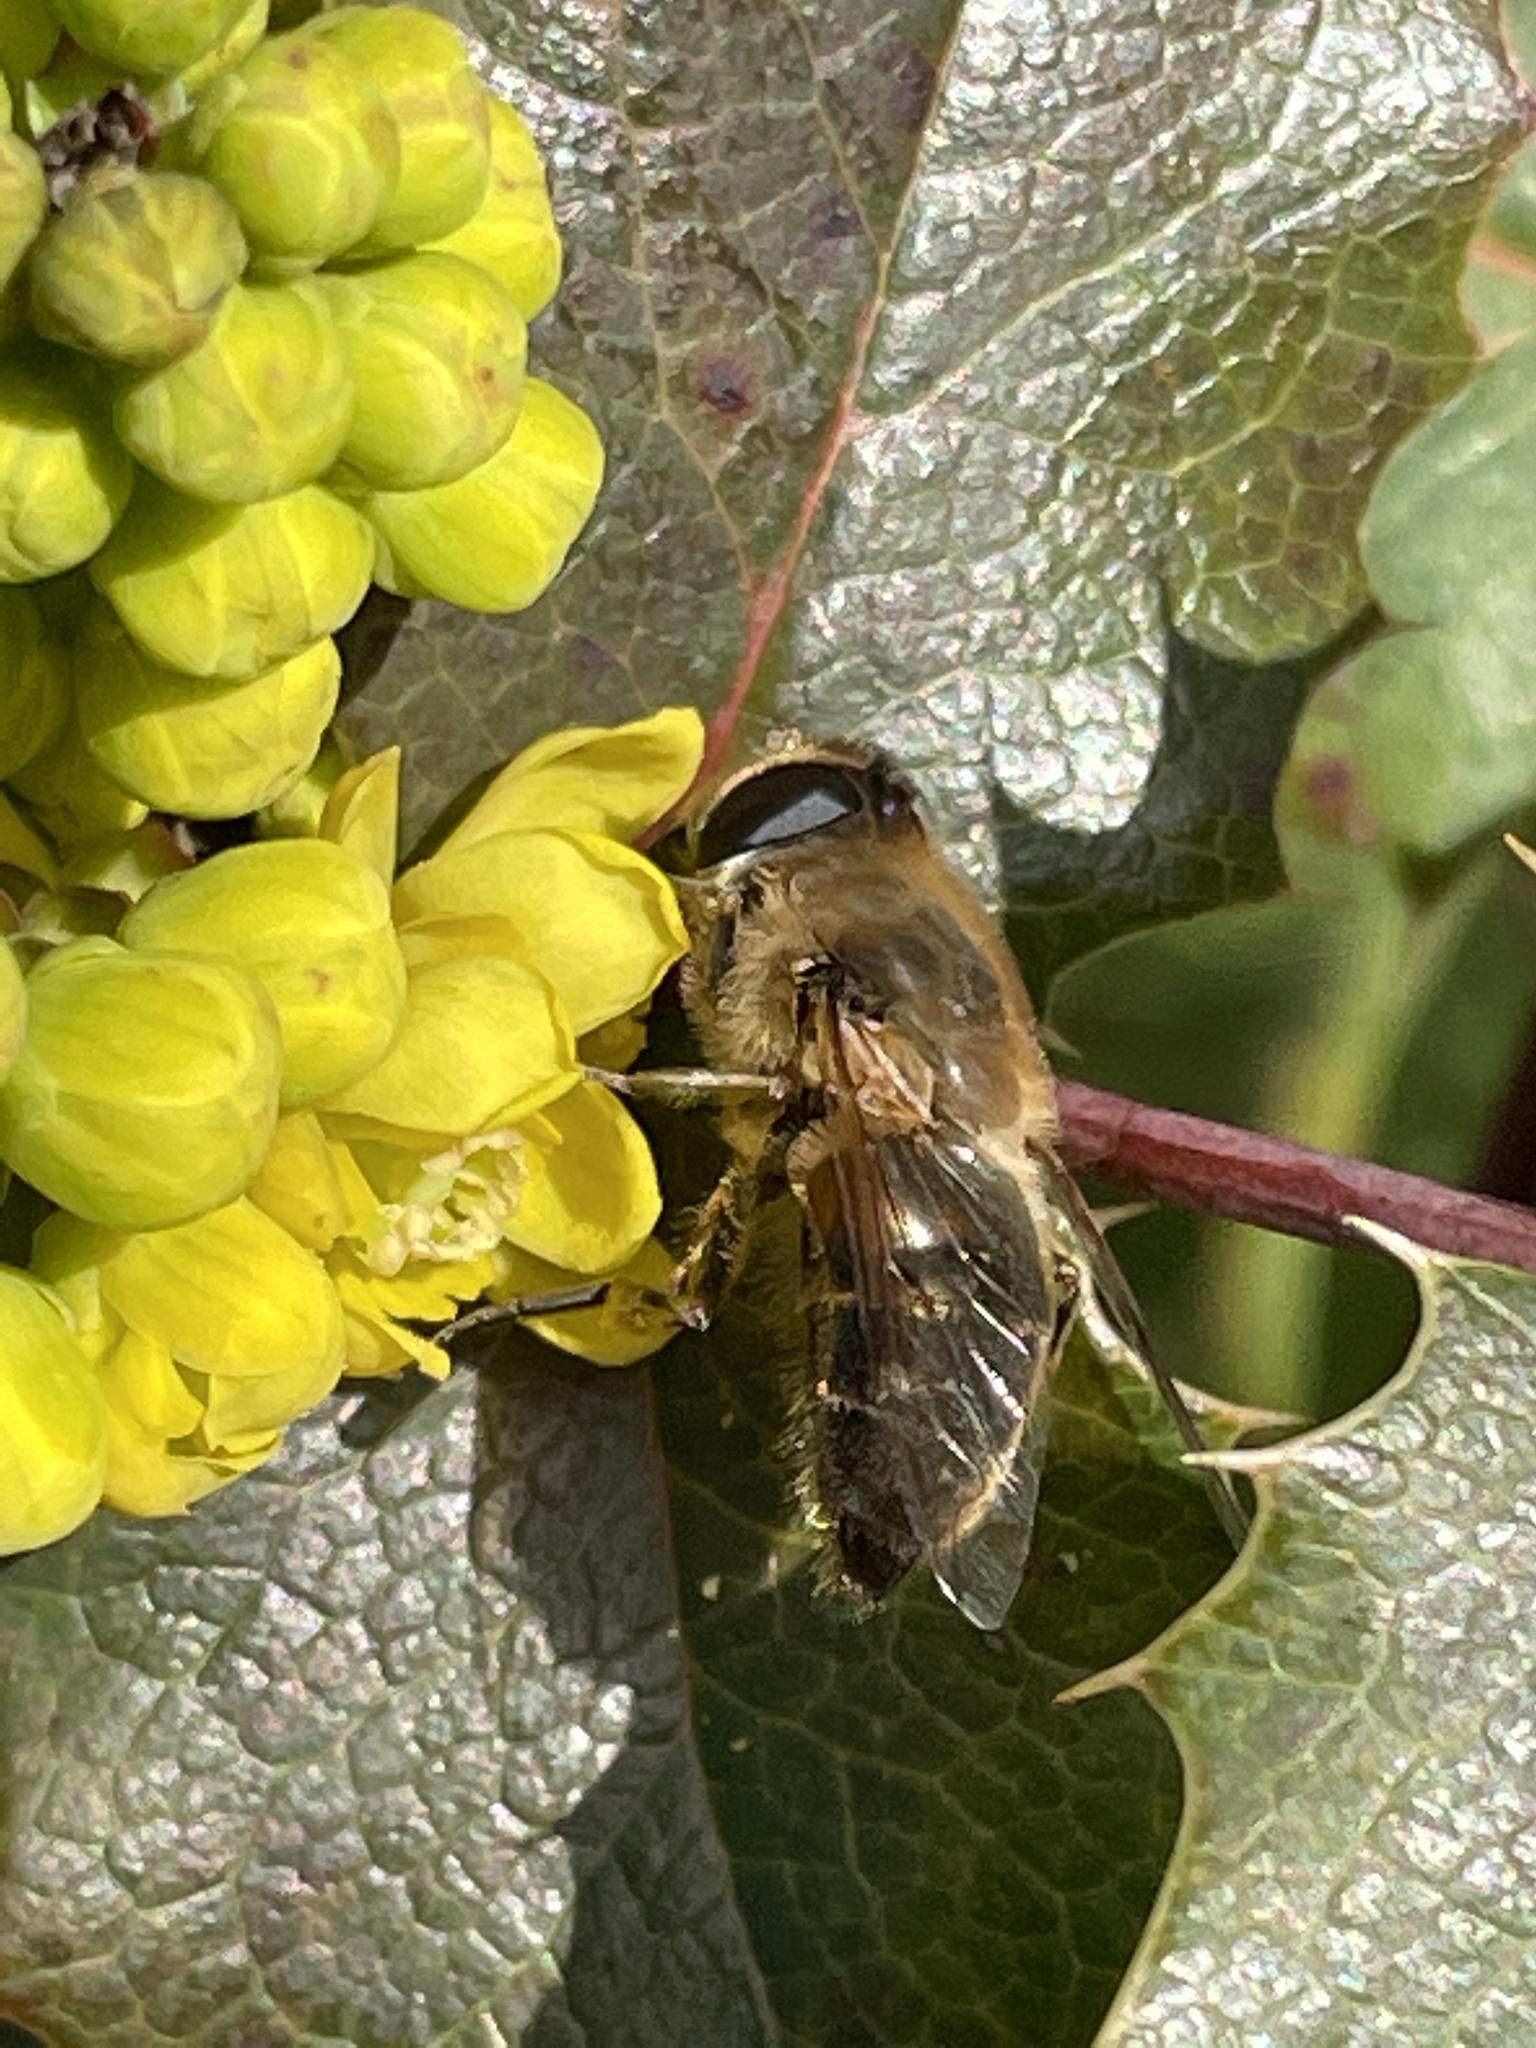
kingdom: Animalia
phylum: Arthropoda
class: Insecta
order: Diptera
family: Syrphidae
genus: Eristalis
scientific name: Eristalis tenax
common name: Drone fly
